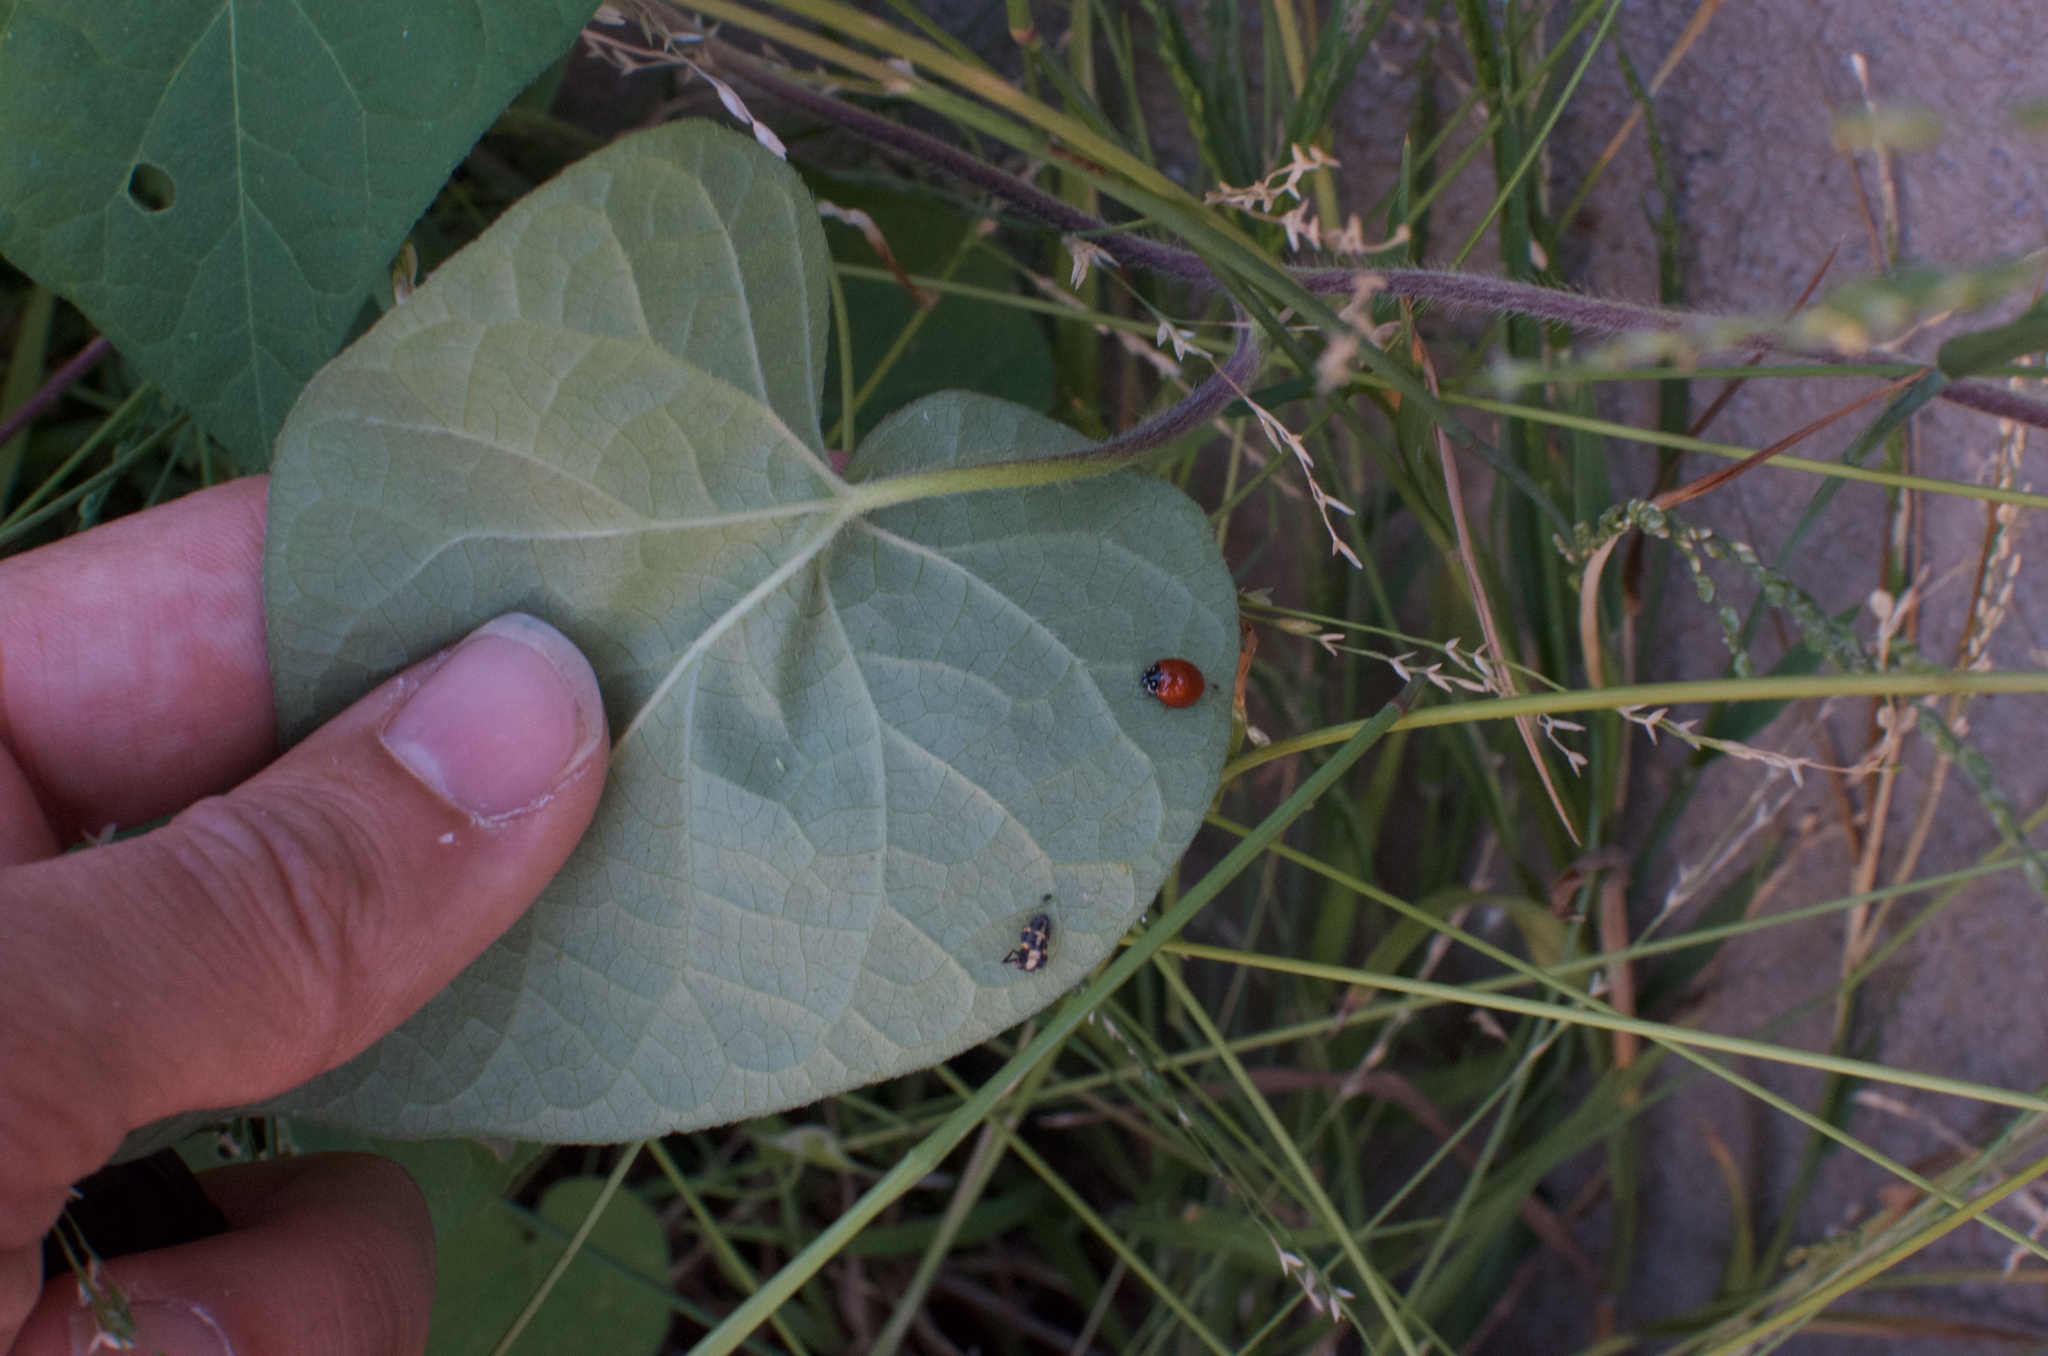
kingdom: Animalia
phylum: Arthropoda
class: Insecta
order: Coleoptera
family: Coccinellidae
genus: Cycloneda
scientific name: Cycloneda sanguinea
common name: Ladybird beetle
